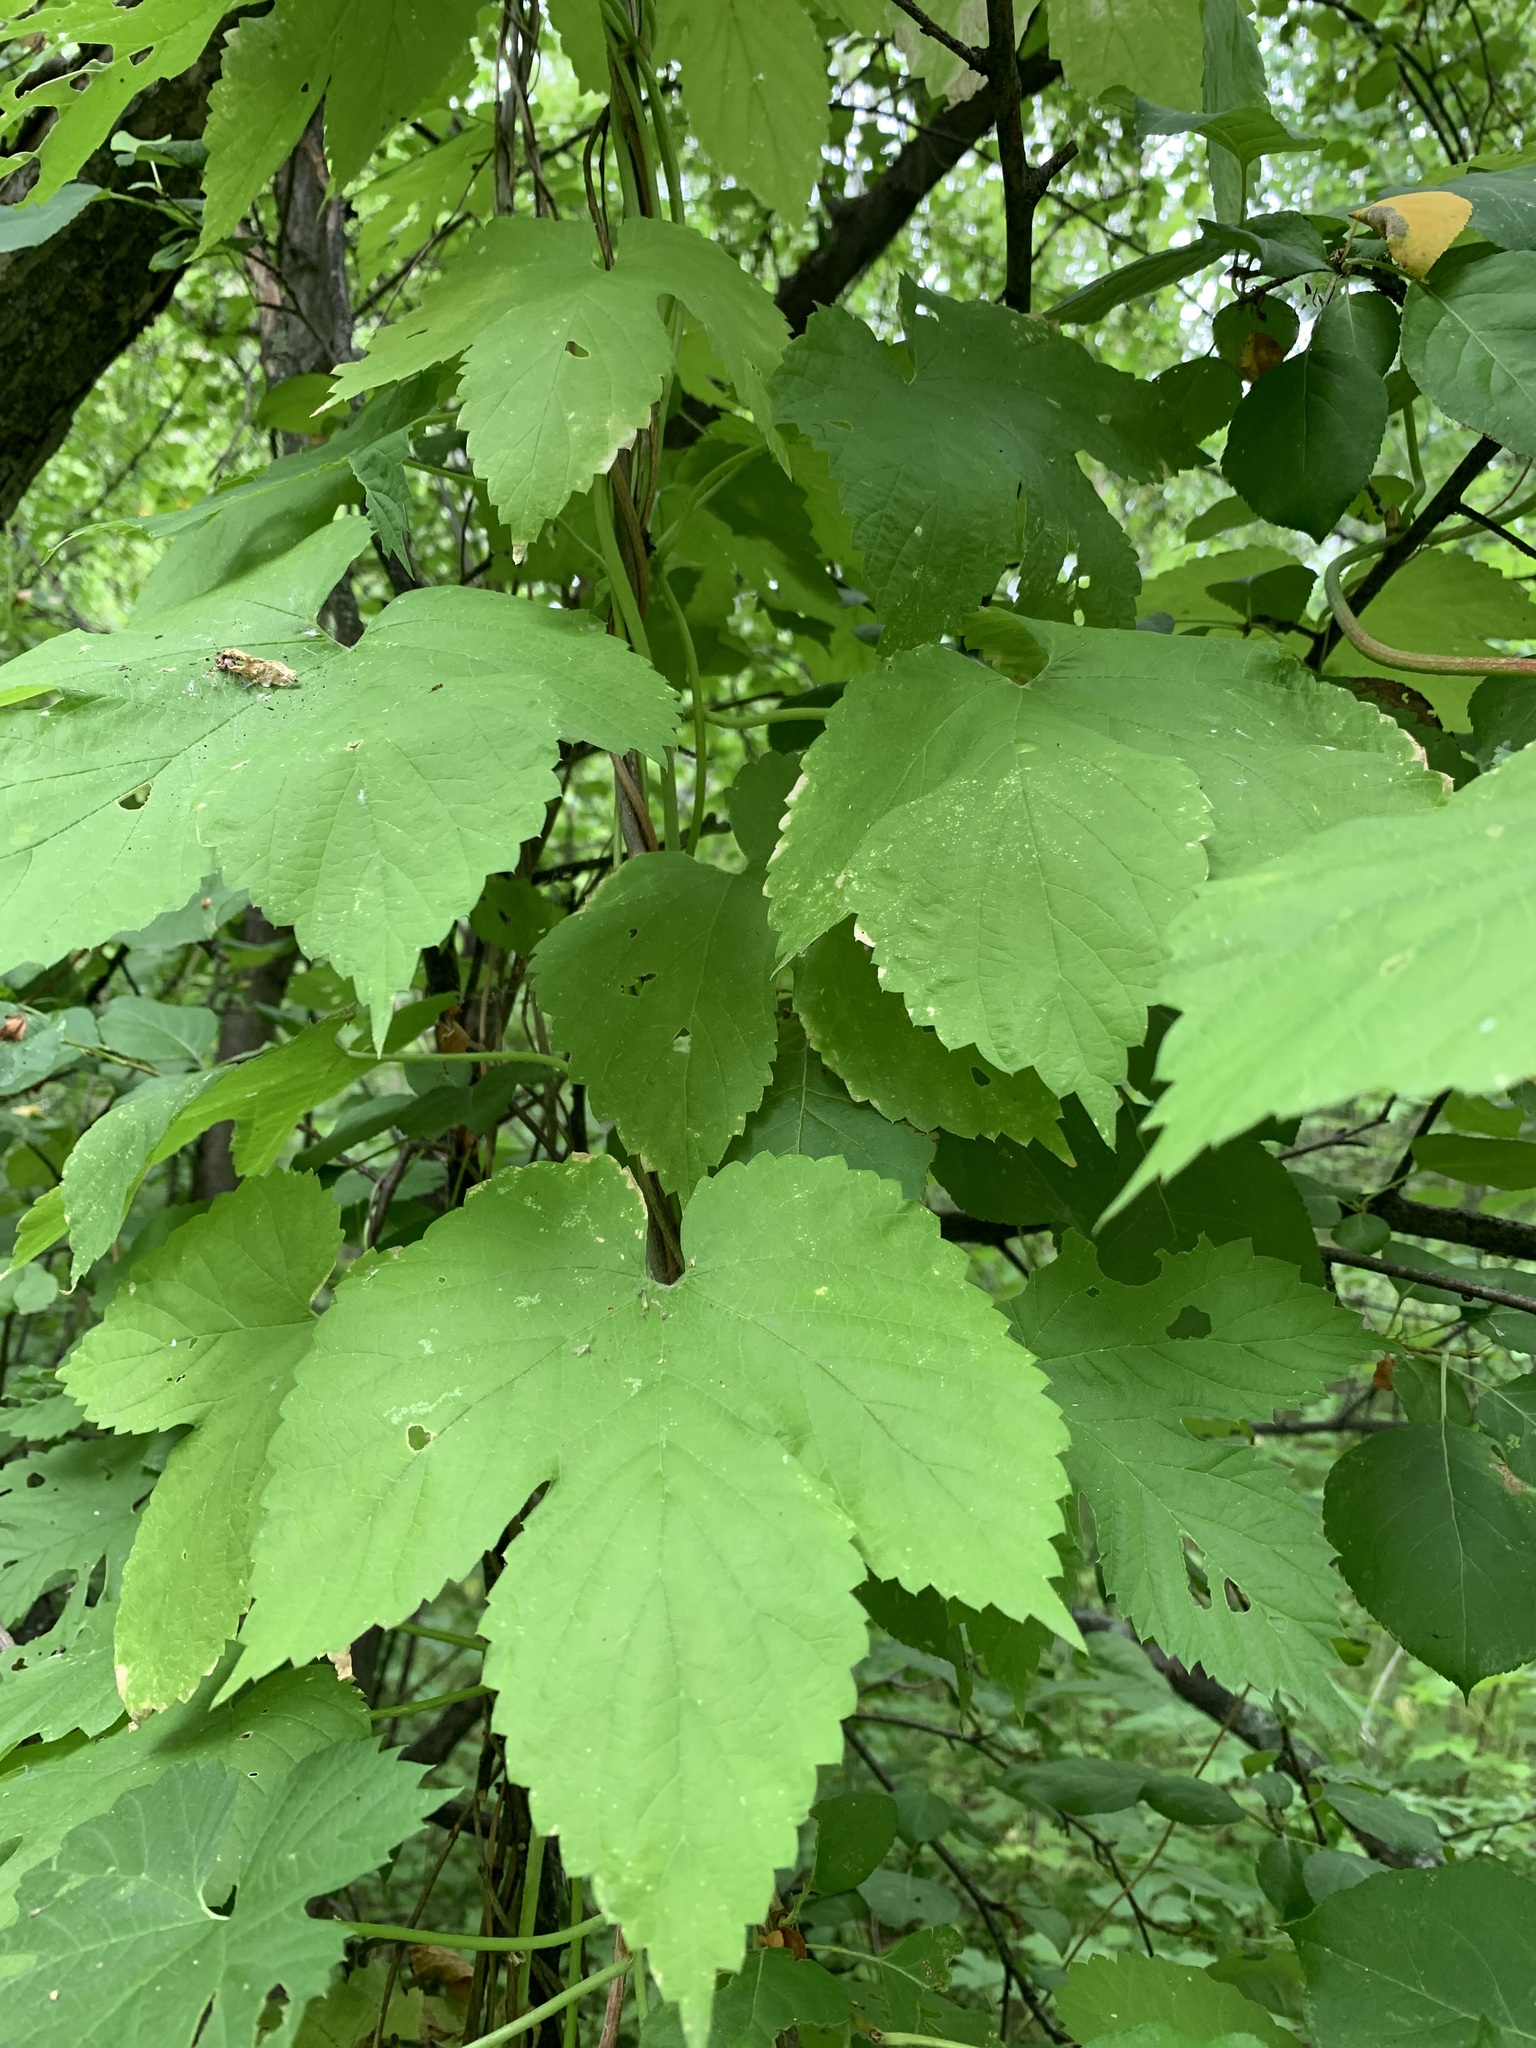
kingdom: Plantae
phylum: Tracheophyta
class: Magnoliopsida
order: Rosales
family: Cannabaceae
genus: Humulus
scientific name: Humulus lupulus
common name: Hop
